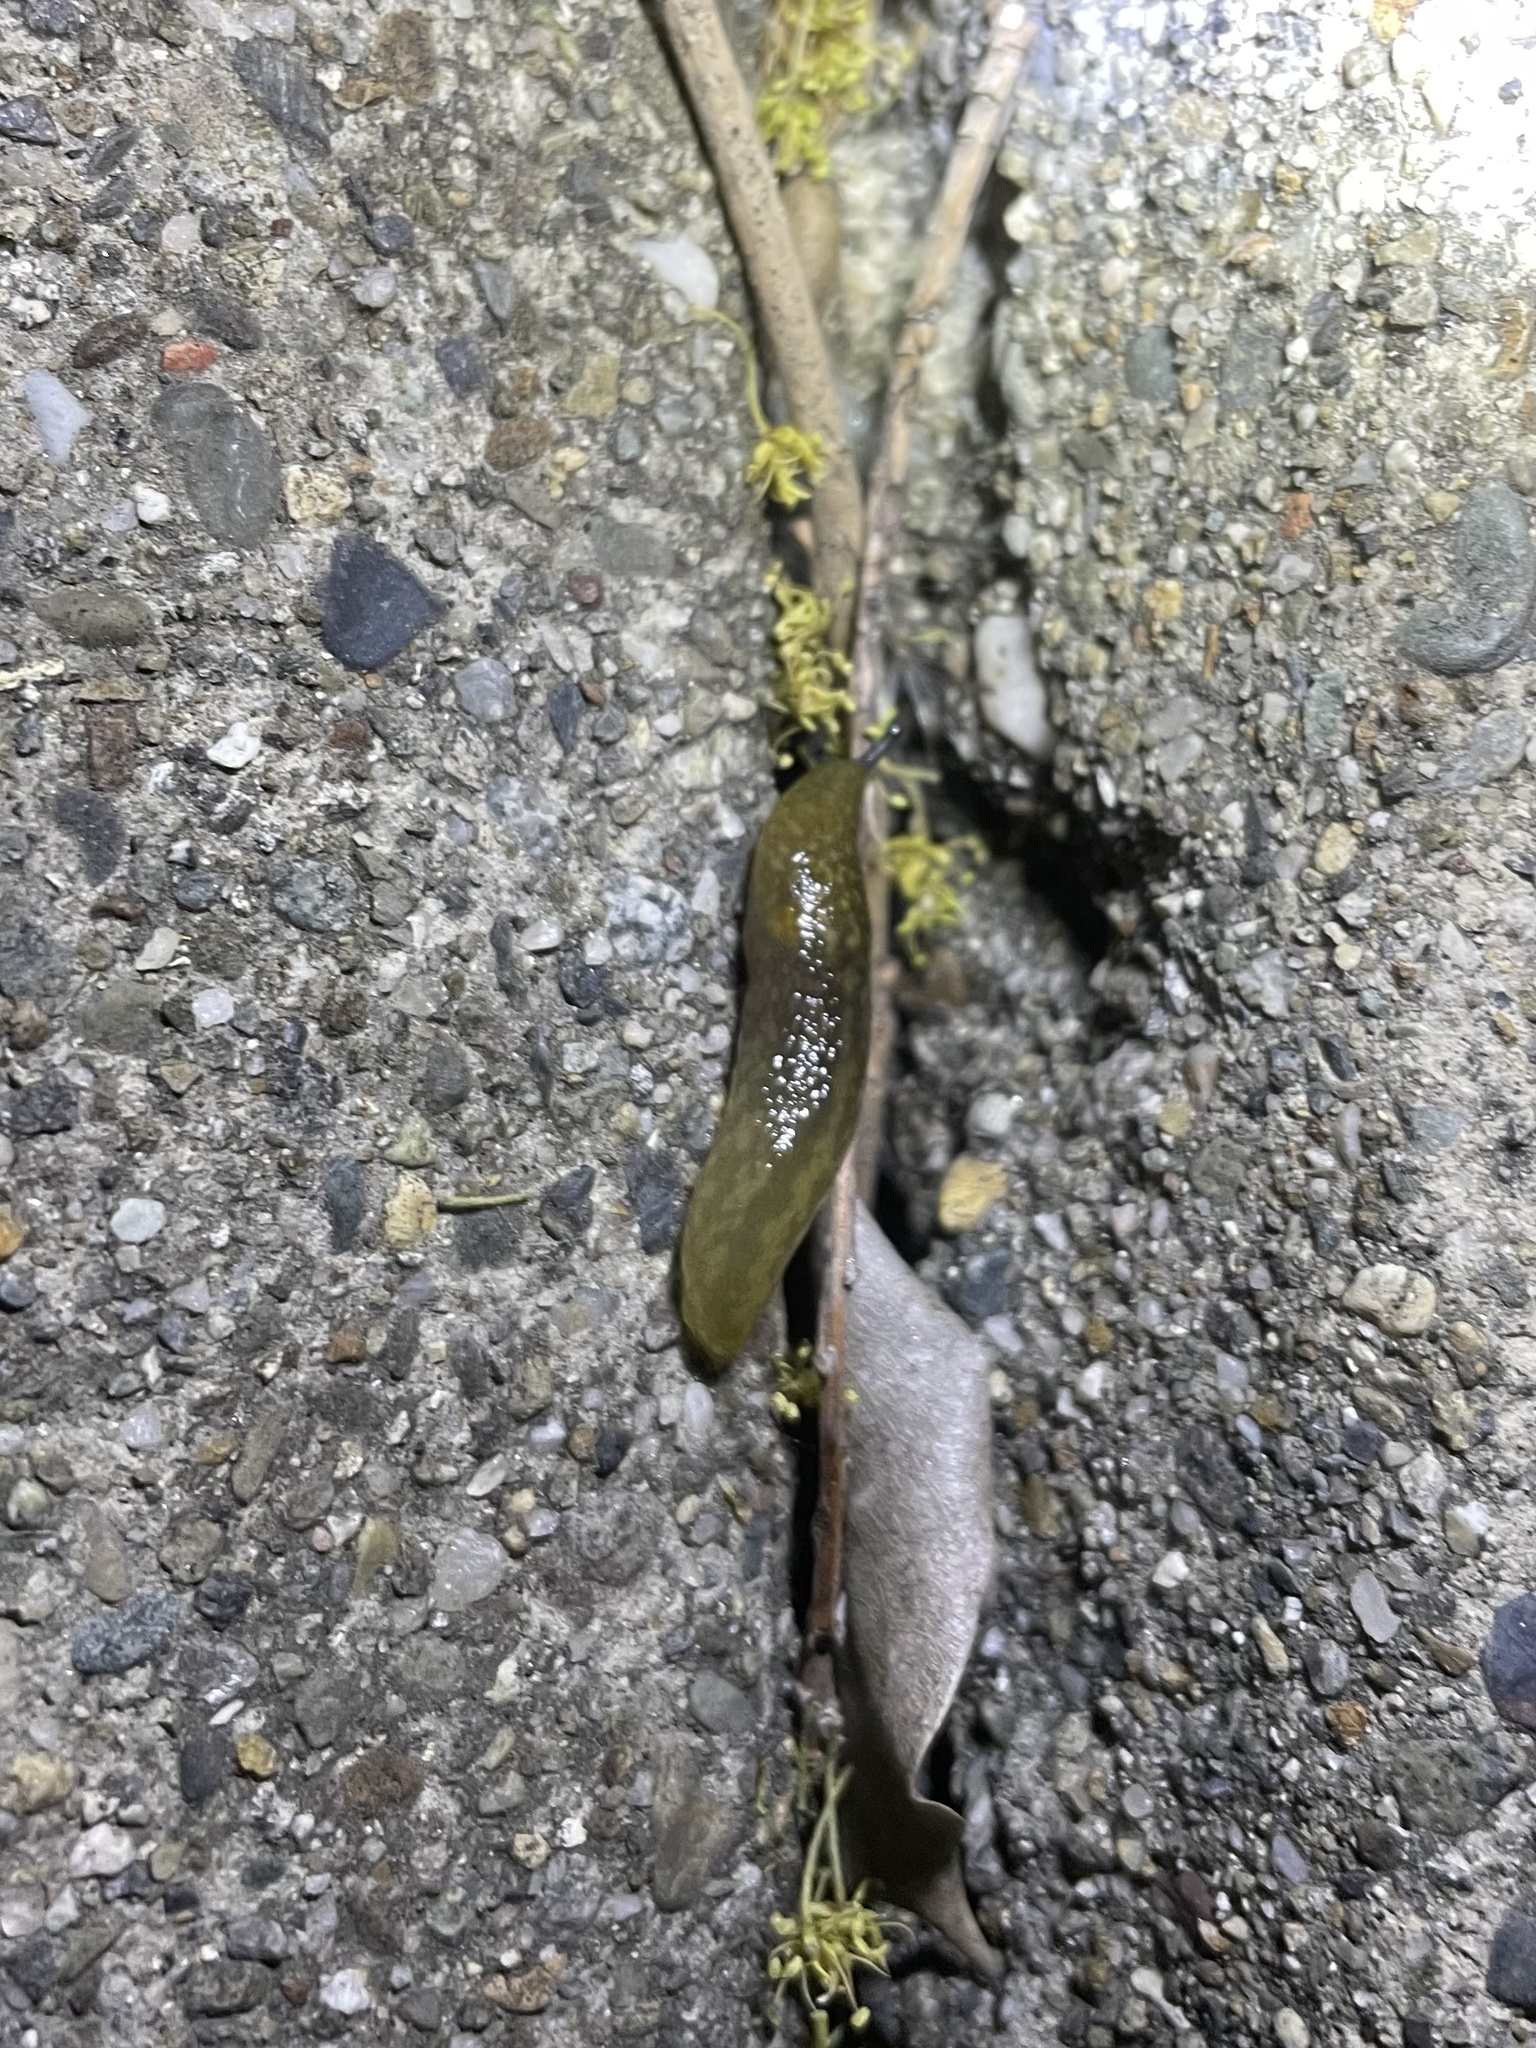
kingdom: Animalia
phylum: Mollusca
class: Gastropoda
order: Stylommatophora
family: Limacidae
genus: Limacus
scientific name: Limacus flavus
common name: Yellow gardenslug
